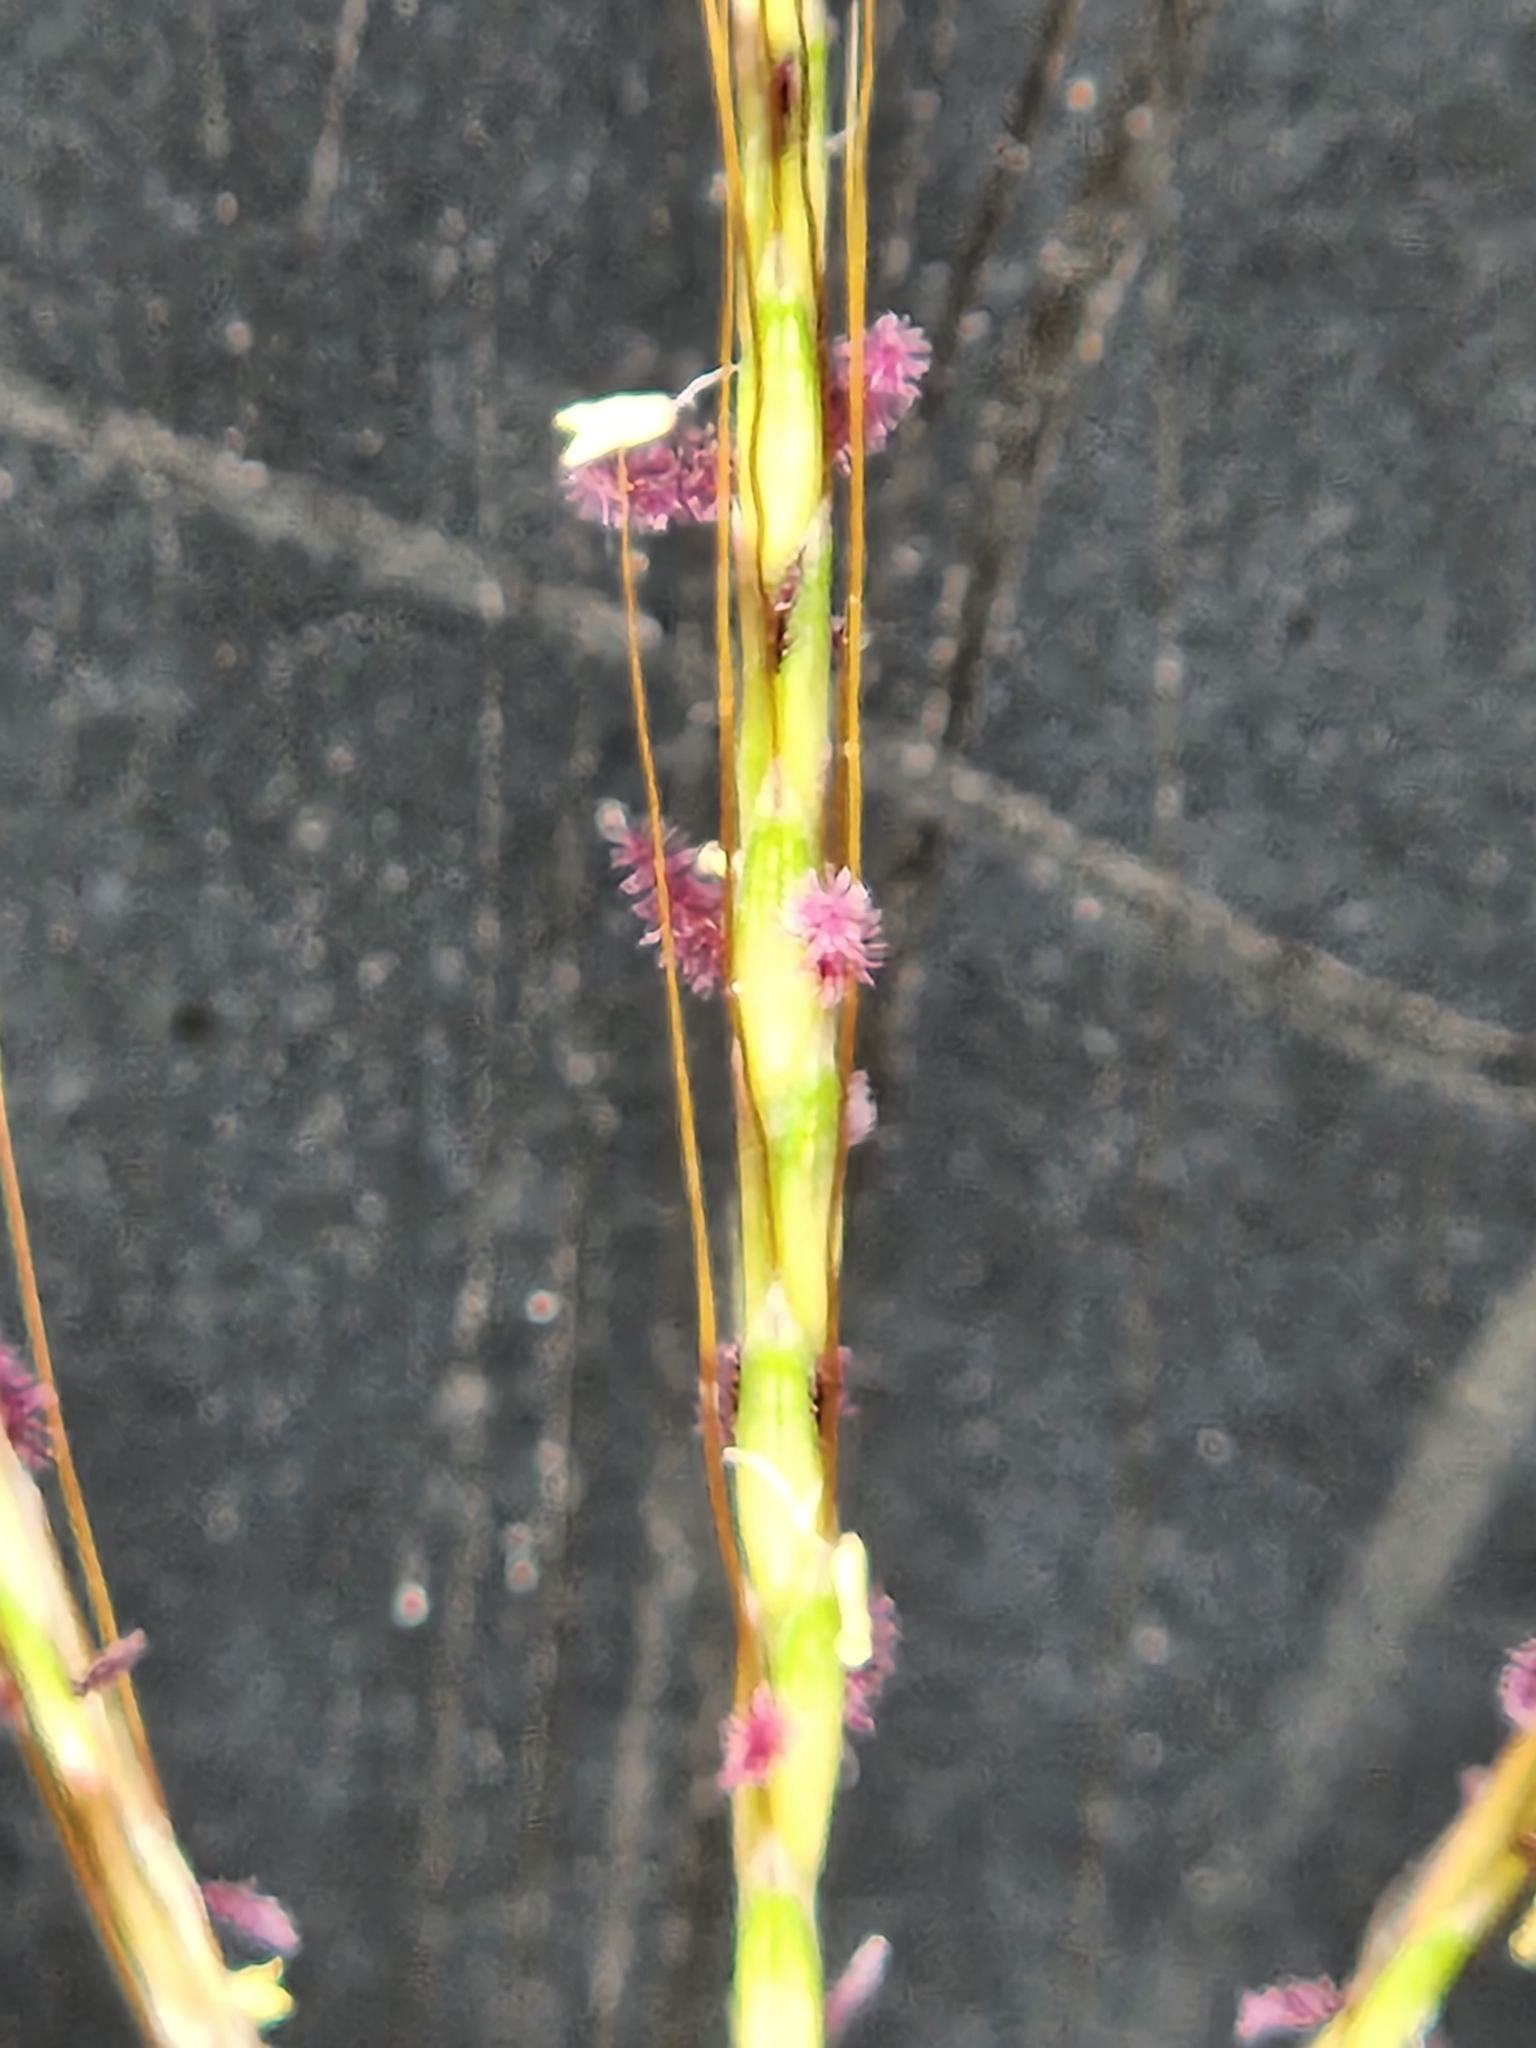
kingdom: Plantae
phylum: Tracheophyta
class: Liliopsida
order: Poales
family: Poaceae
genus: Bothriochloa
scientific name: Bothriochloa ischaemum
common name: Yellow bluestem
